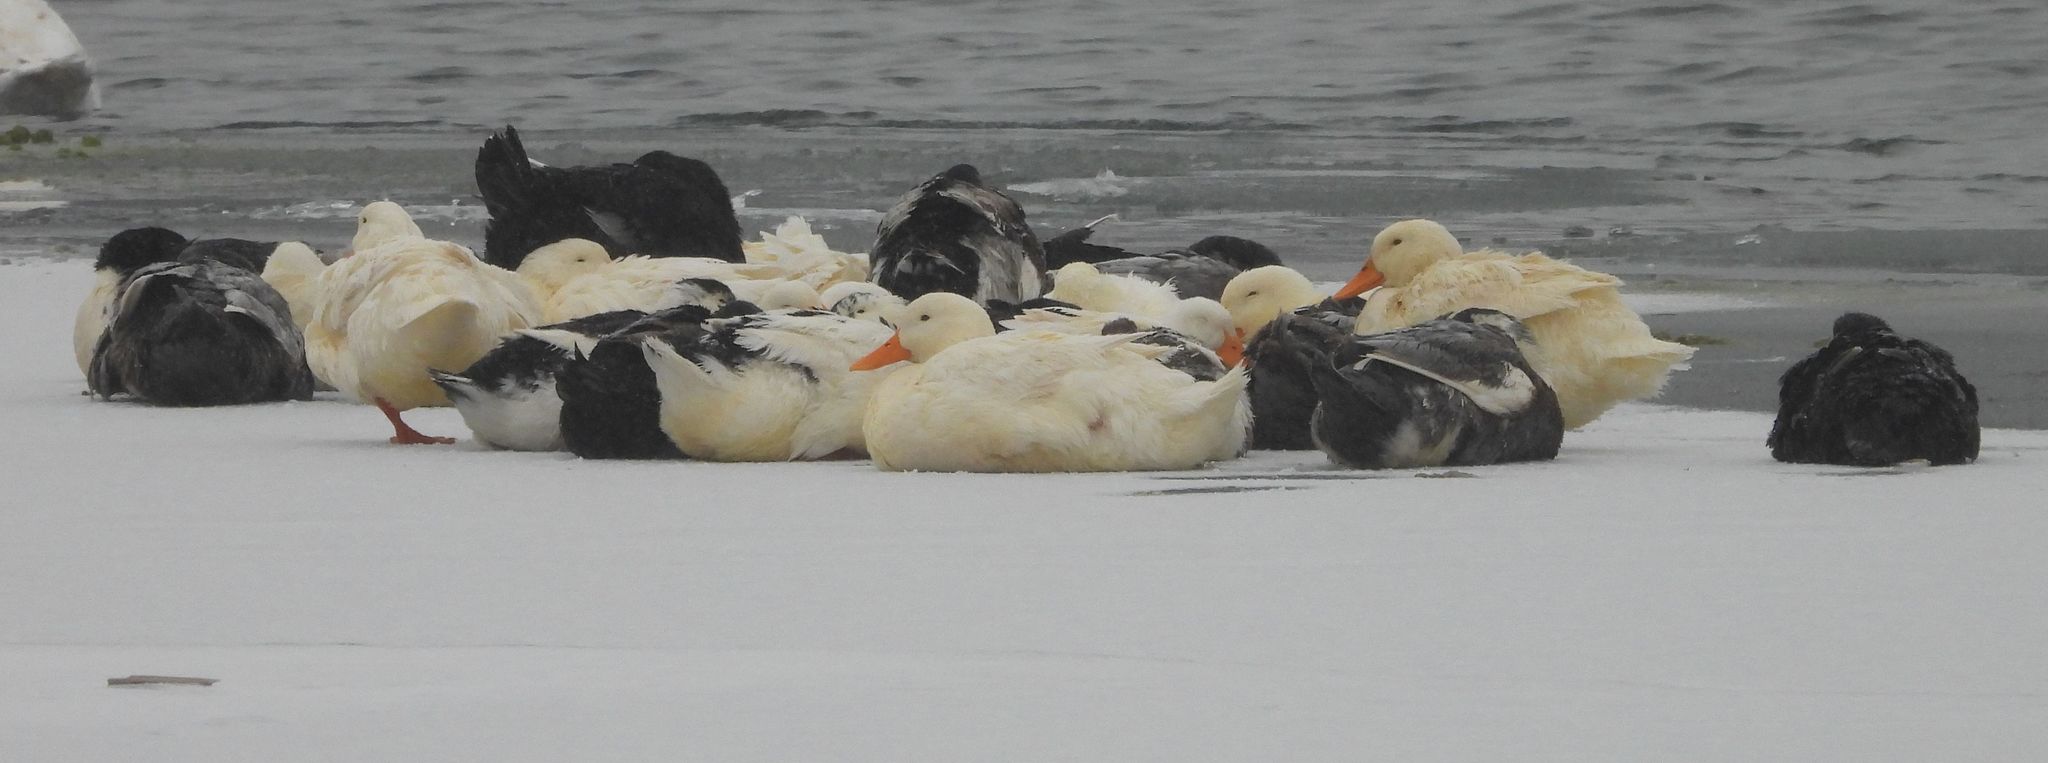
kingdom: Animalia
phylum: Chordata
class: Aves
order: Anseriformes
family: Anatidae
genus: Anas
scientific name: Anas platyrhynchos
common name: Mallard
